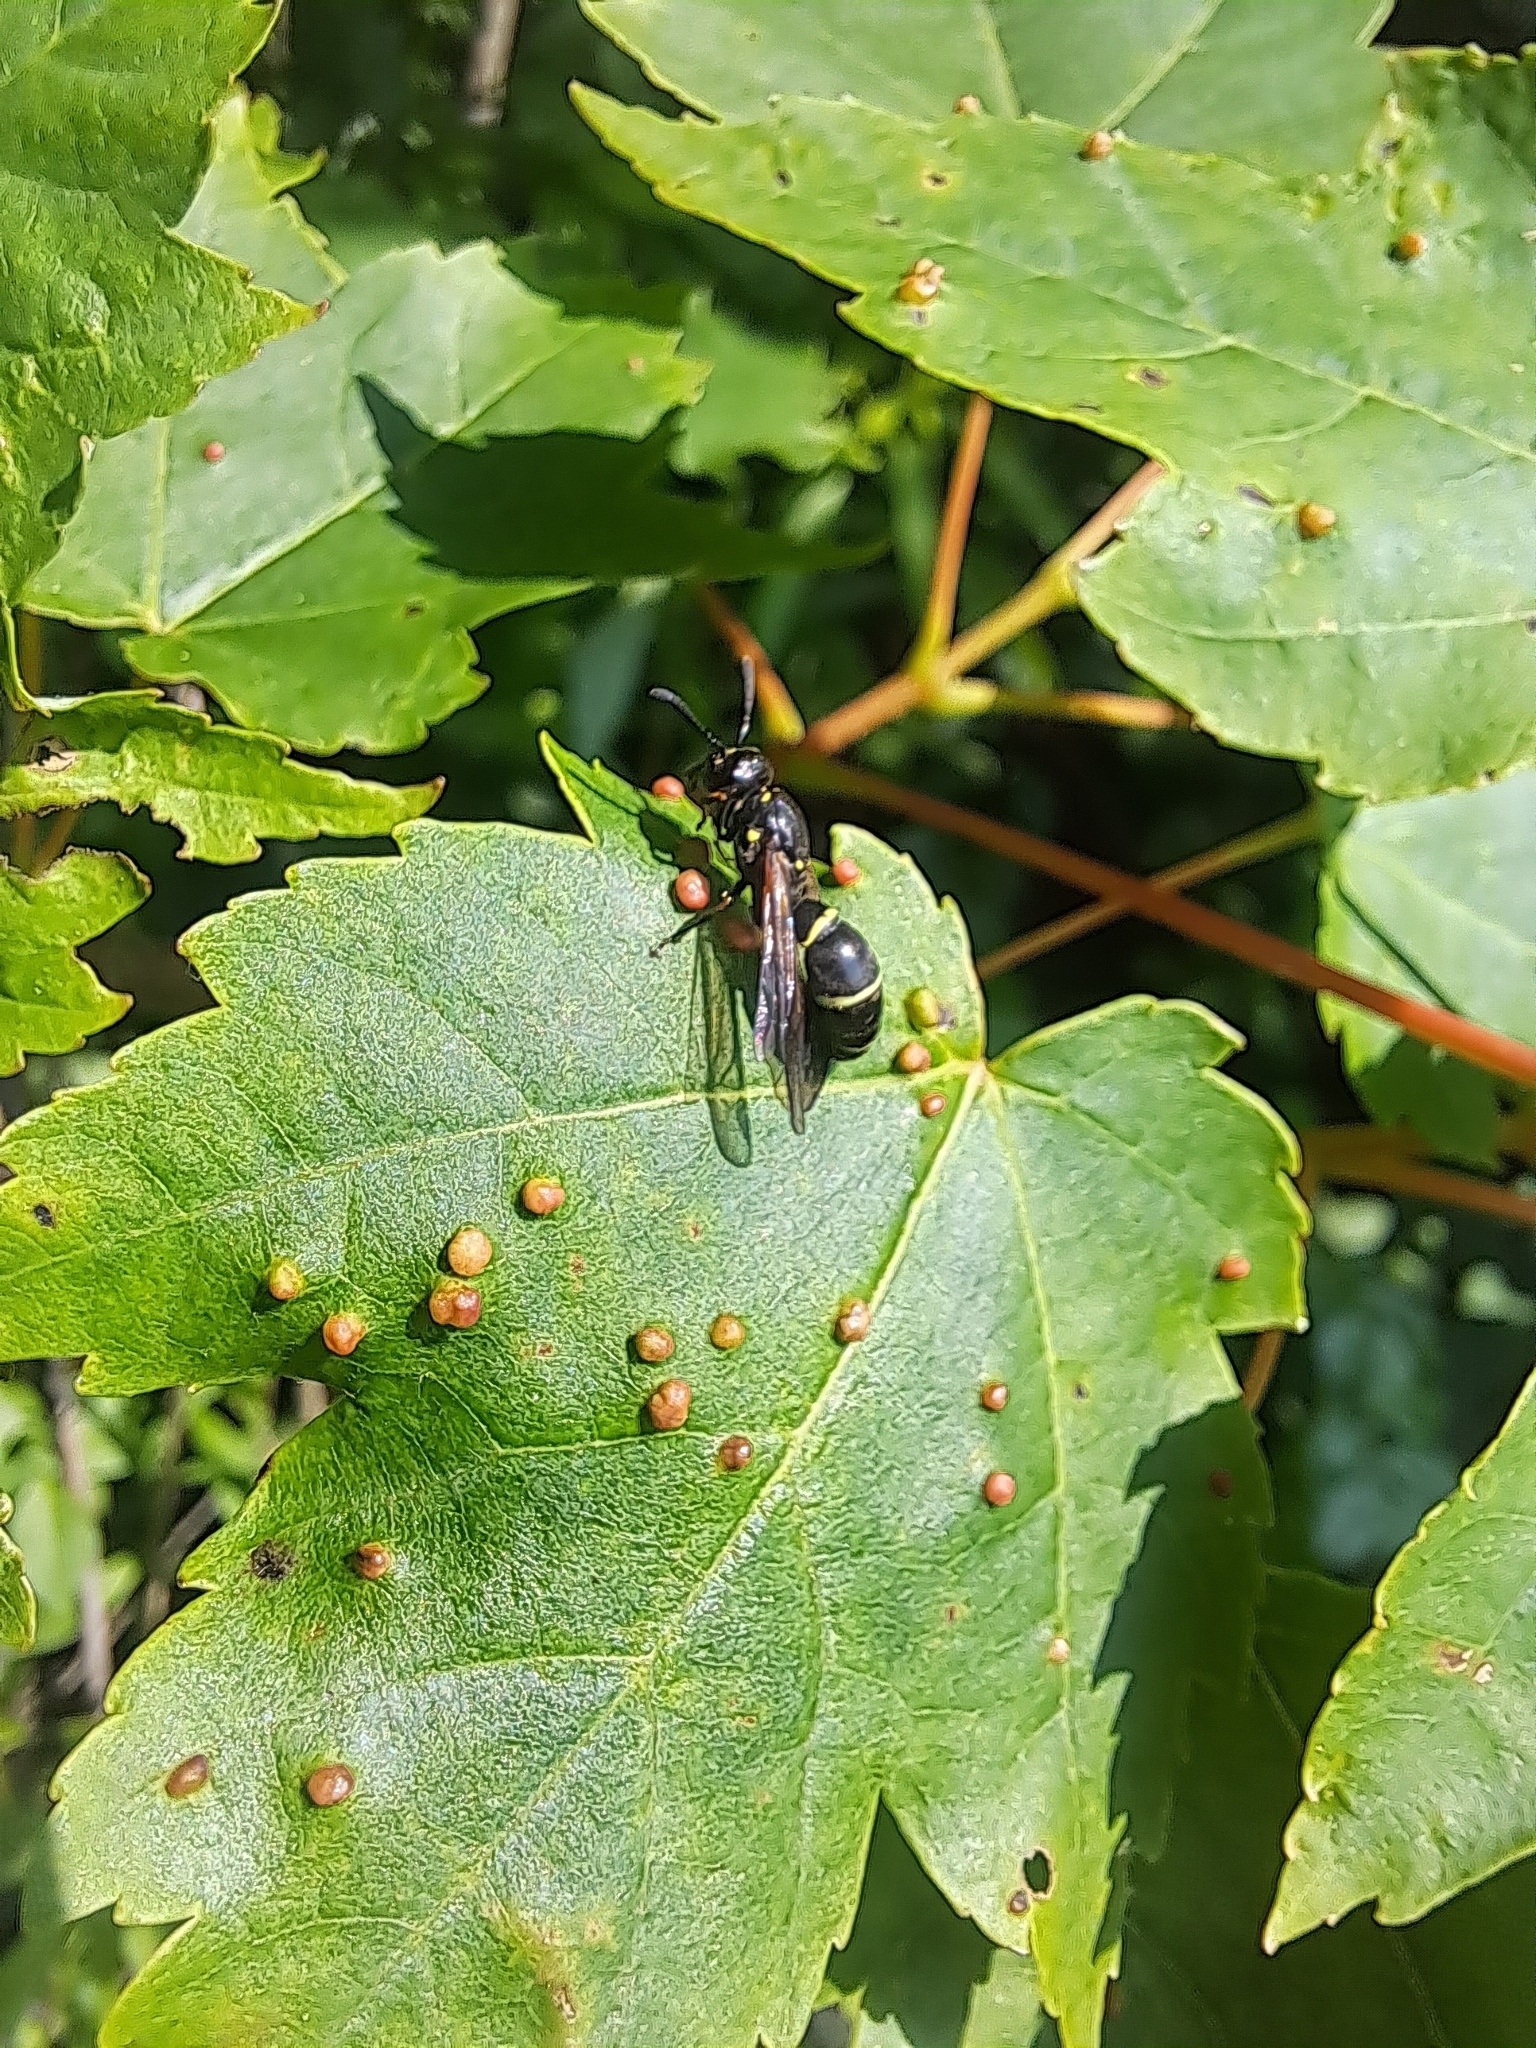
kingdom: Animalia
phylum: Arthropoda
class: Insecta
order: Hymenoptera
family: Eumenidae
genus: Symmorphus
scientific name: Symmorphus
